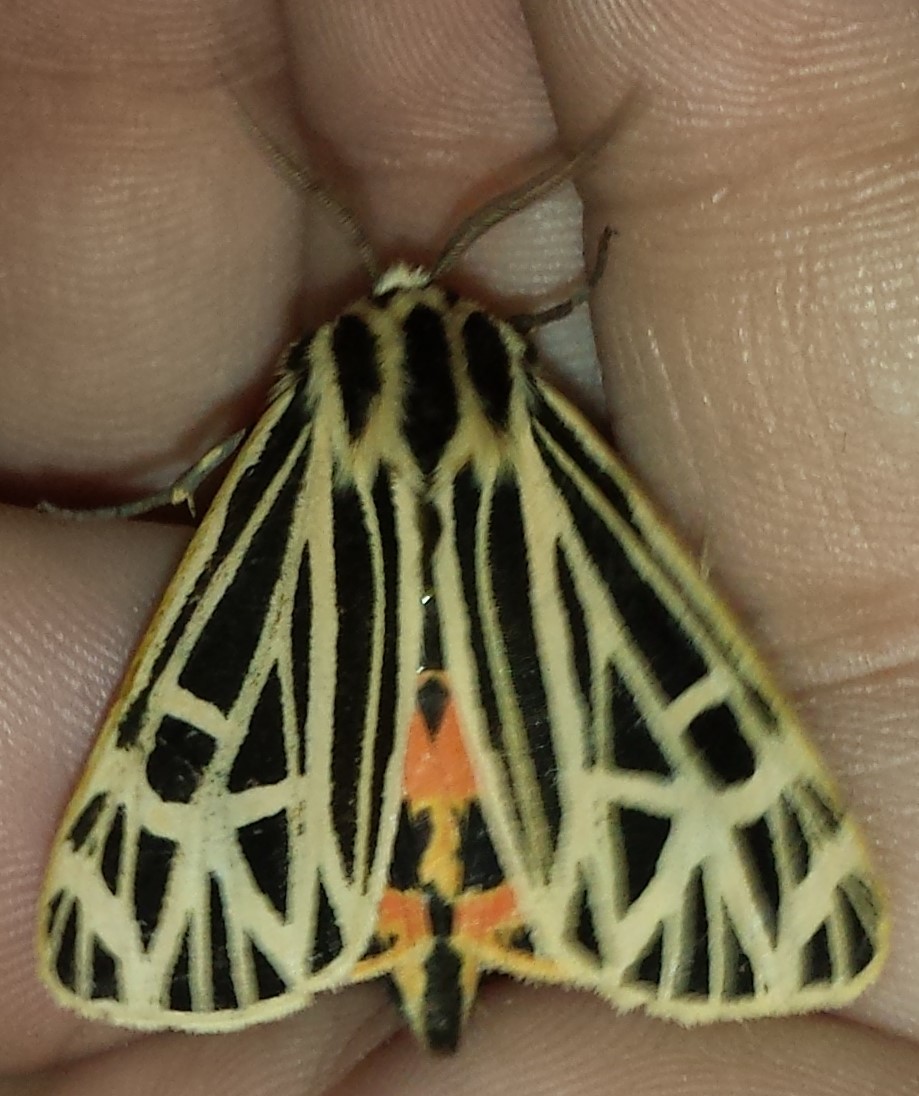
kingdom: Animalia
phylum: Arthropoda
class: Insecta
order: Lepidoptera
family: Erebidae
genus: Grammia
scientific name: Grammia virgo
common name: Virgin tiger moth
